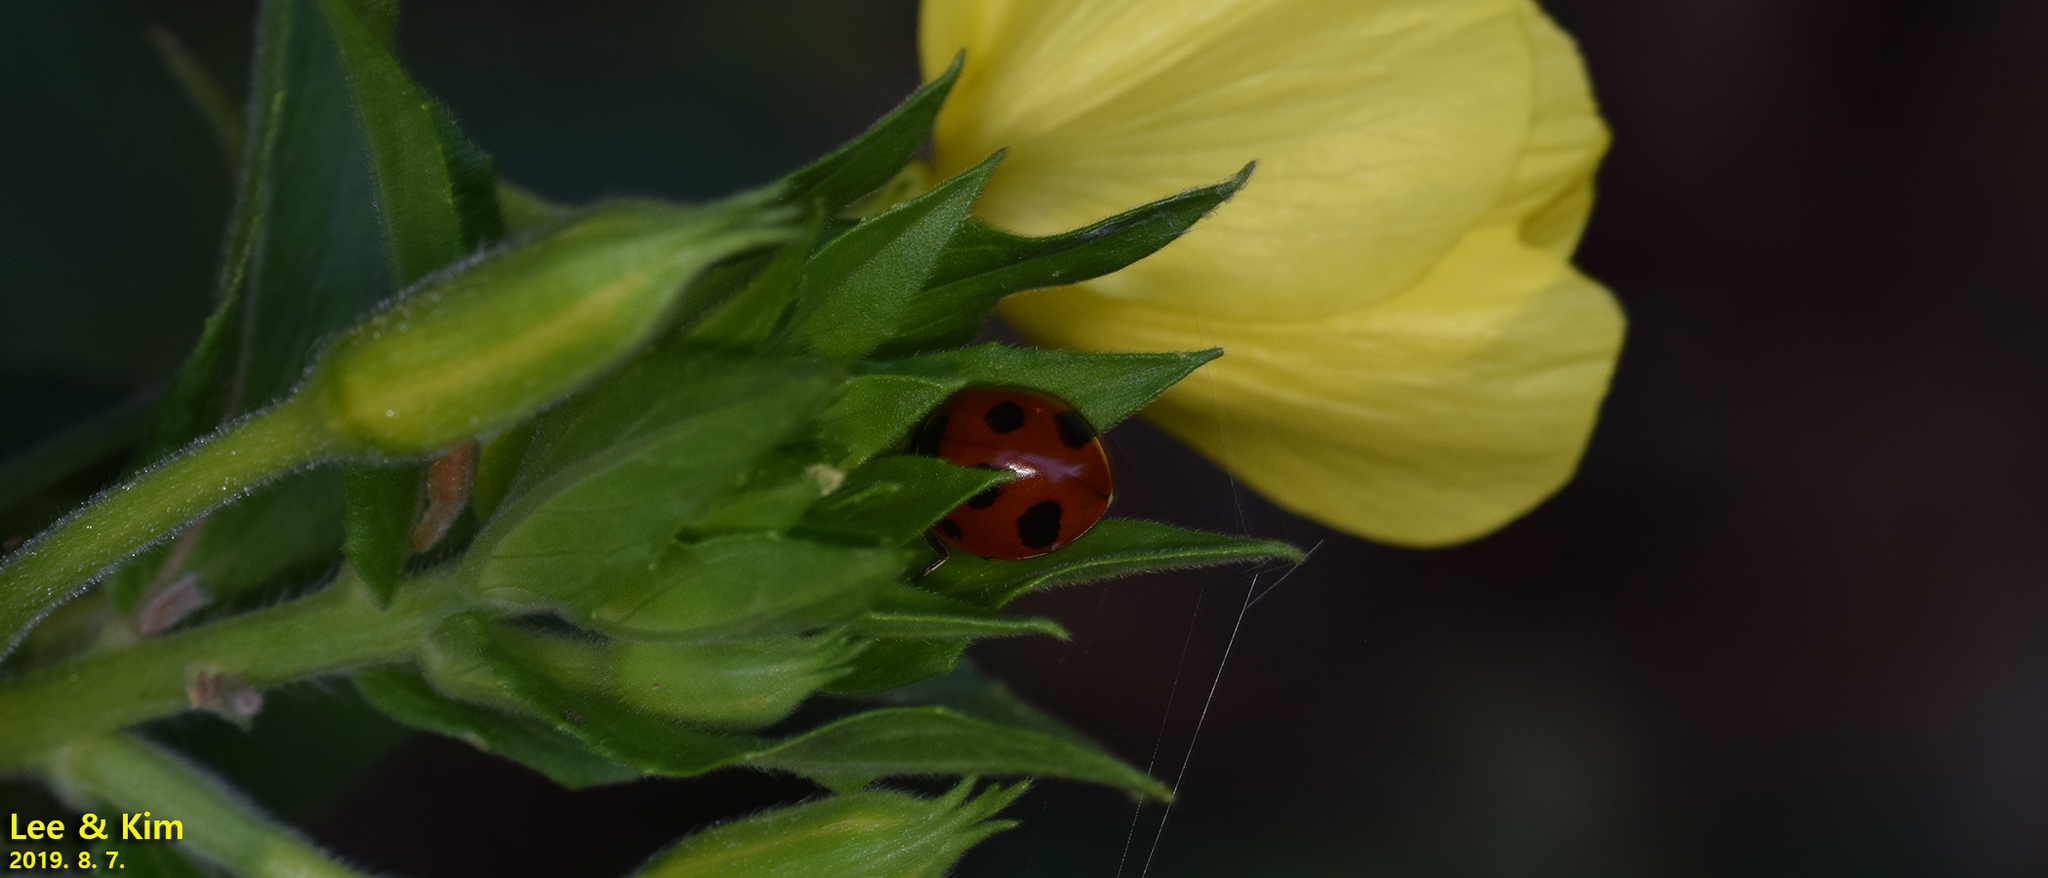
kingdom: Animalia
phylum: Arthropoda
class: Insecta
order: Coleoptera
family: Coccinellidae
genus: Coccinella
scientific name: Coccinella septempunctata
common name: Sevenspotted lady beetle
